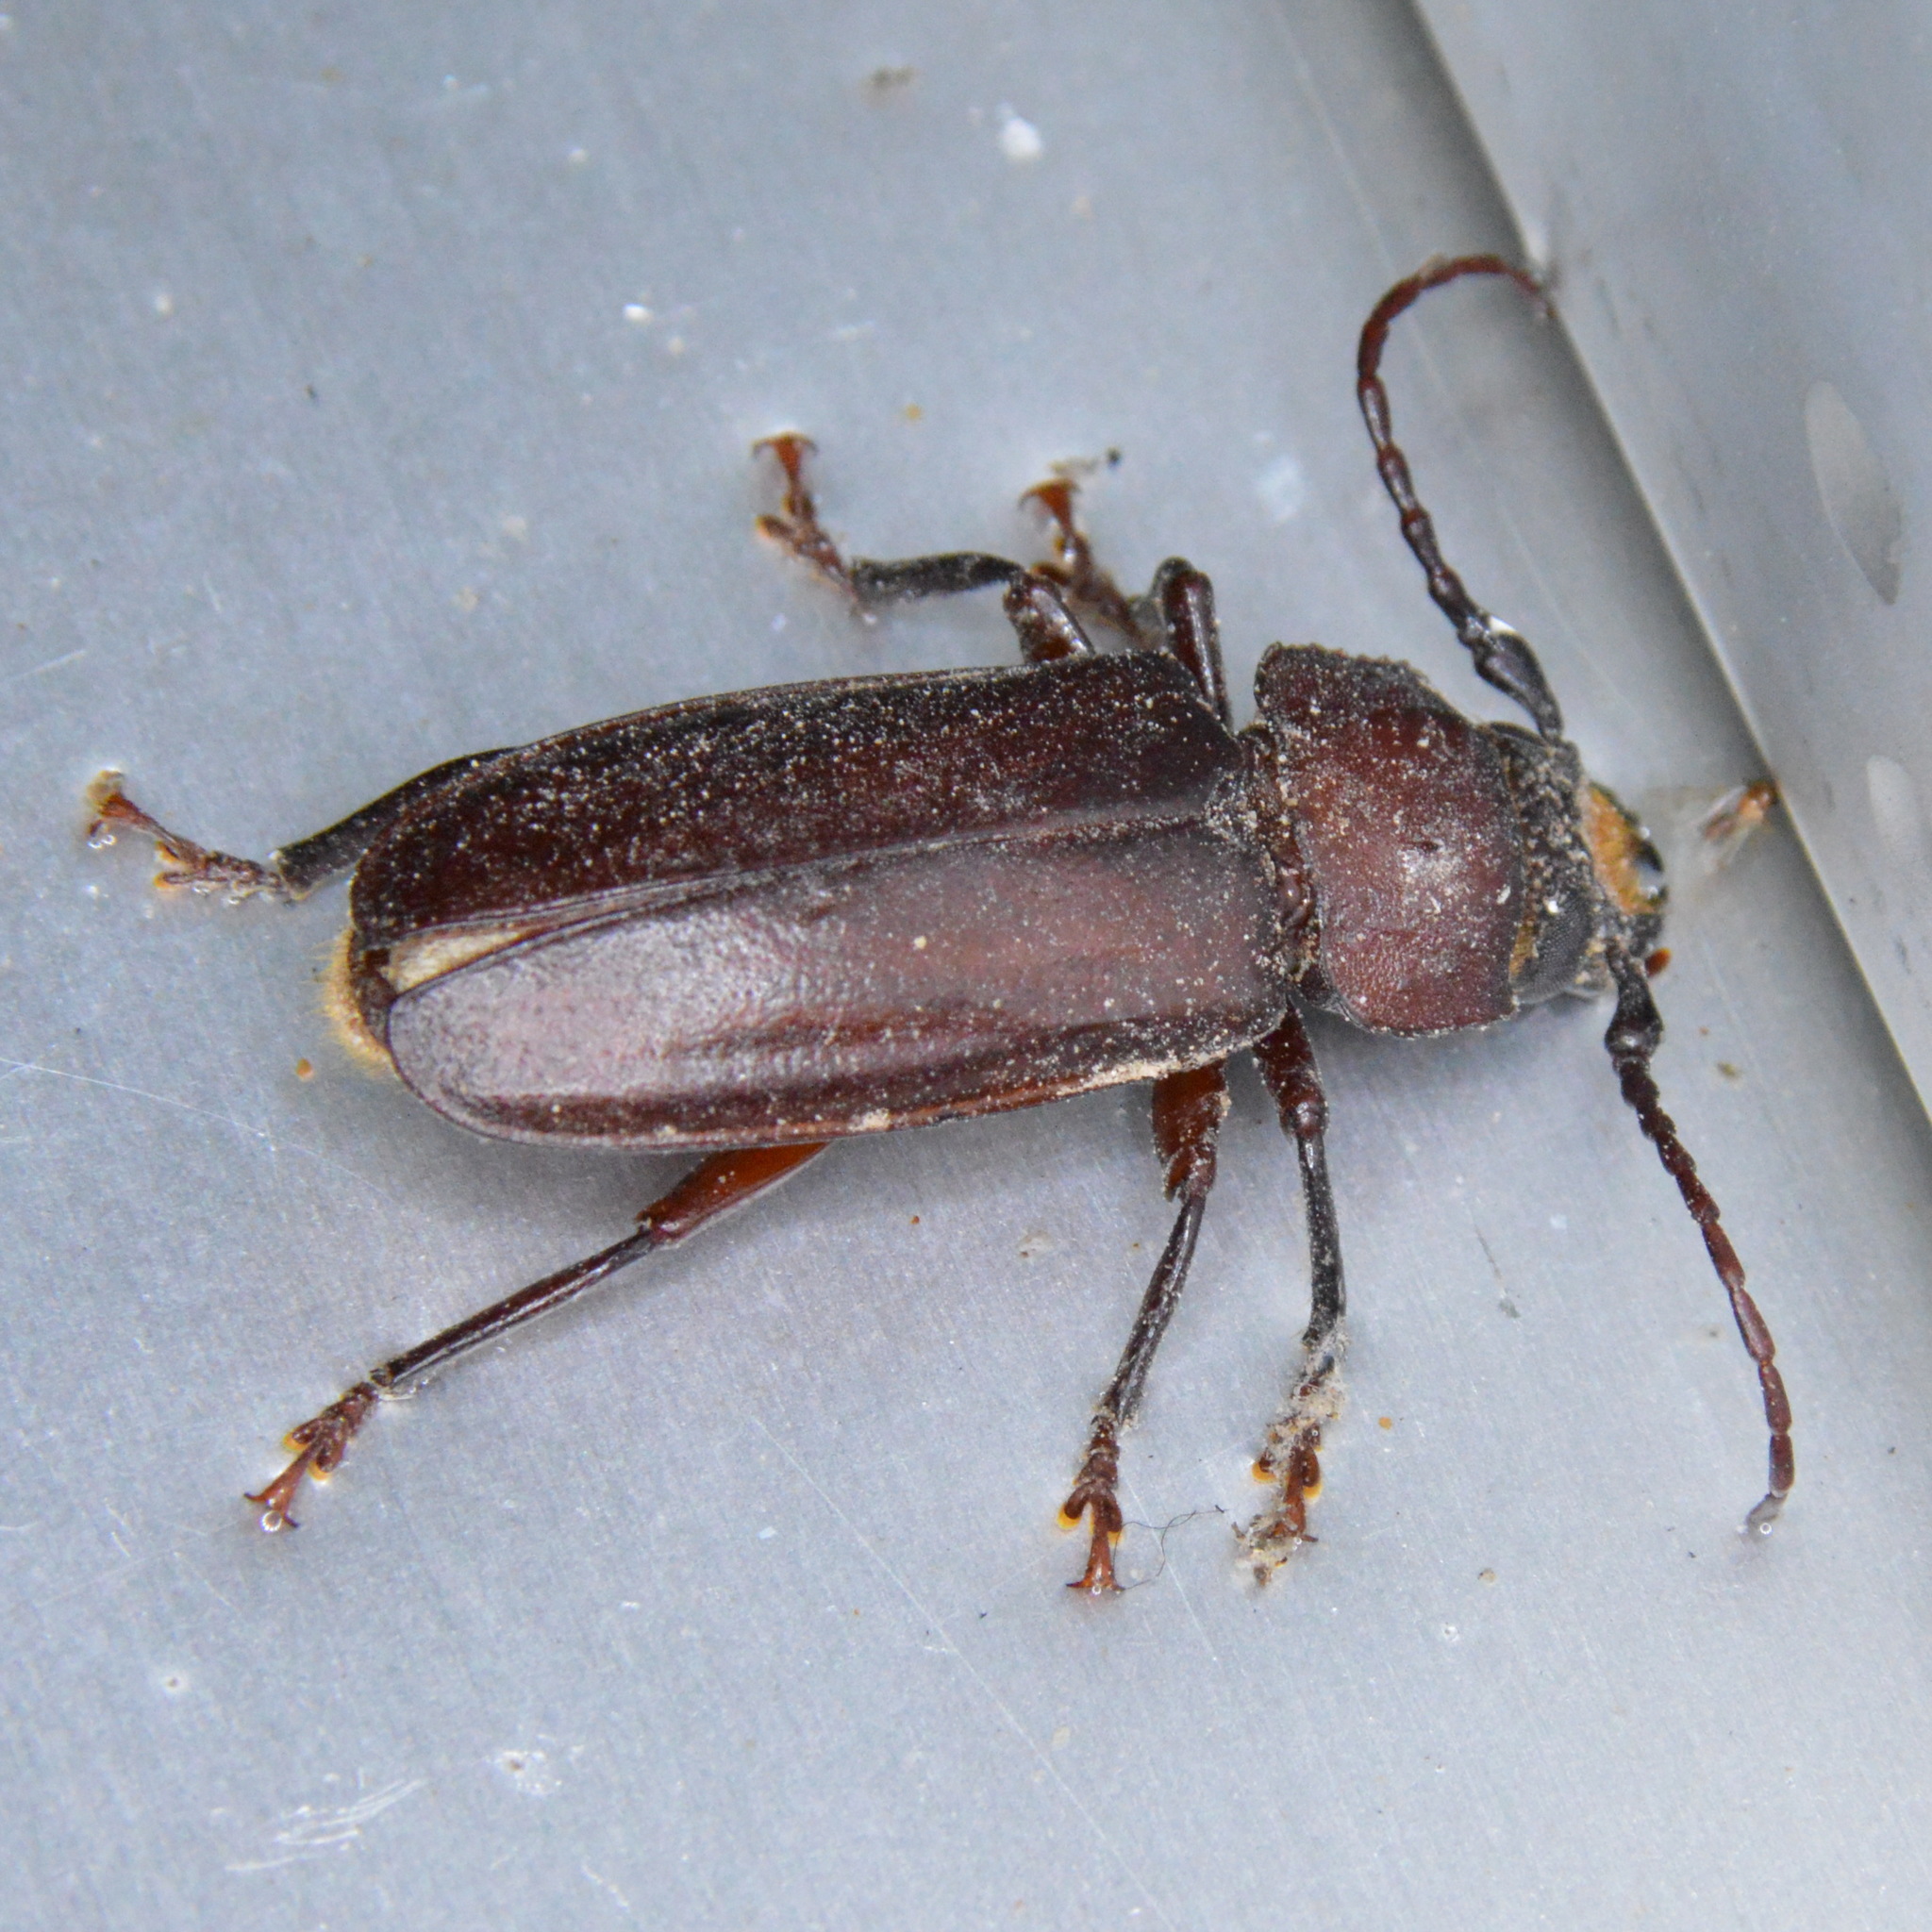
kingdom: Animalia
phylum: Arthropoda
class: Insecta
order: Coleoptera
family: Cerambycidae
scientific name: Cerambycidae
